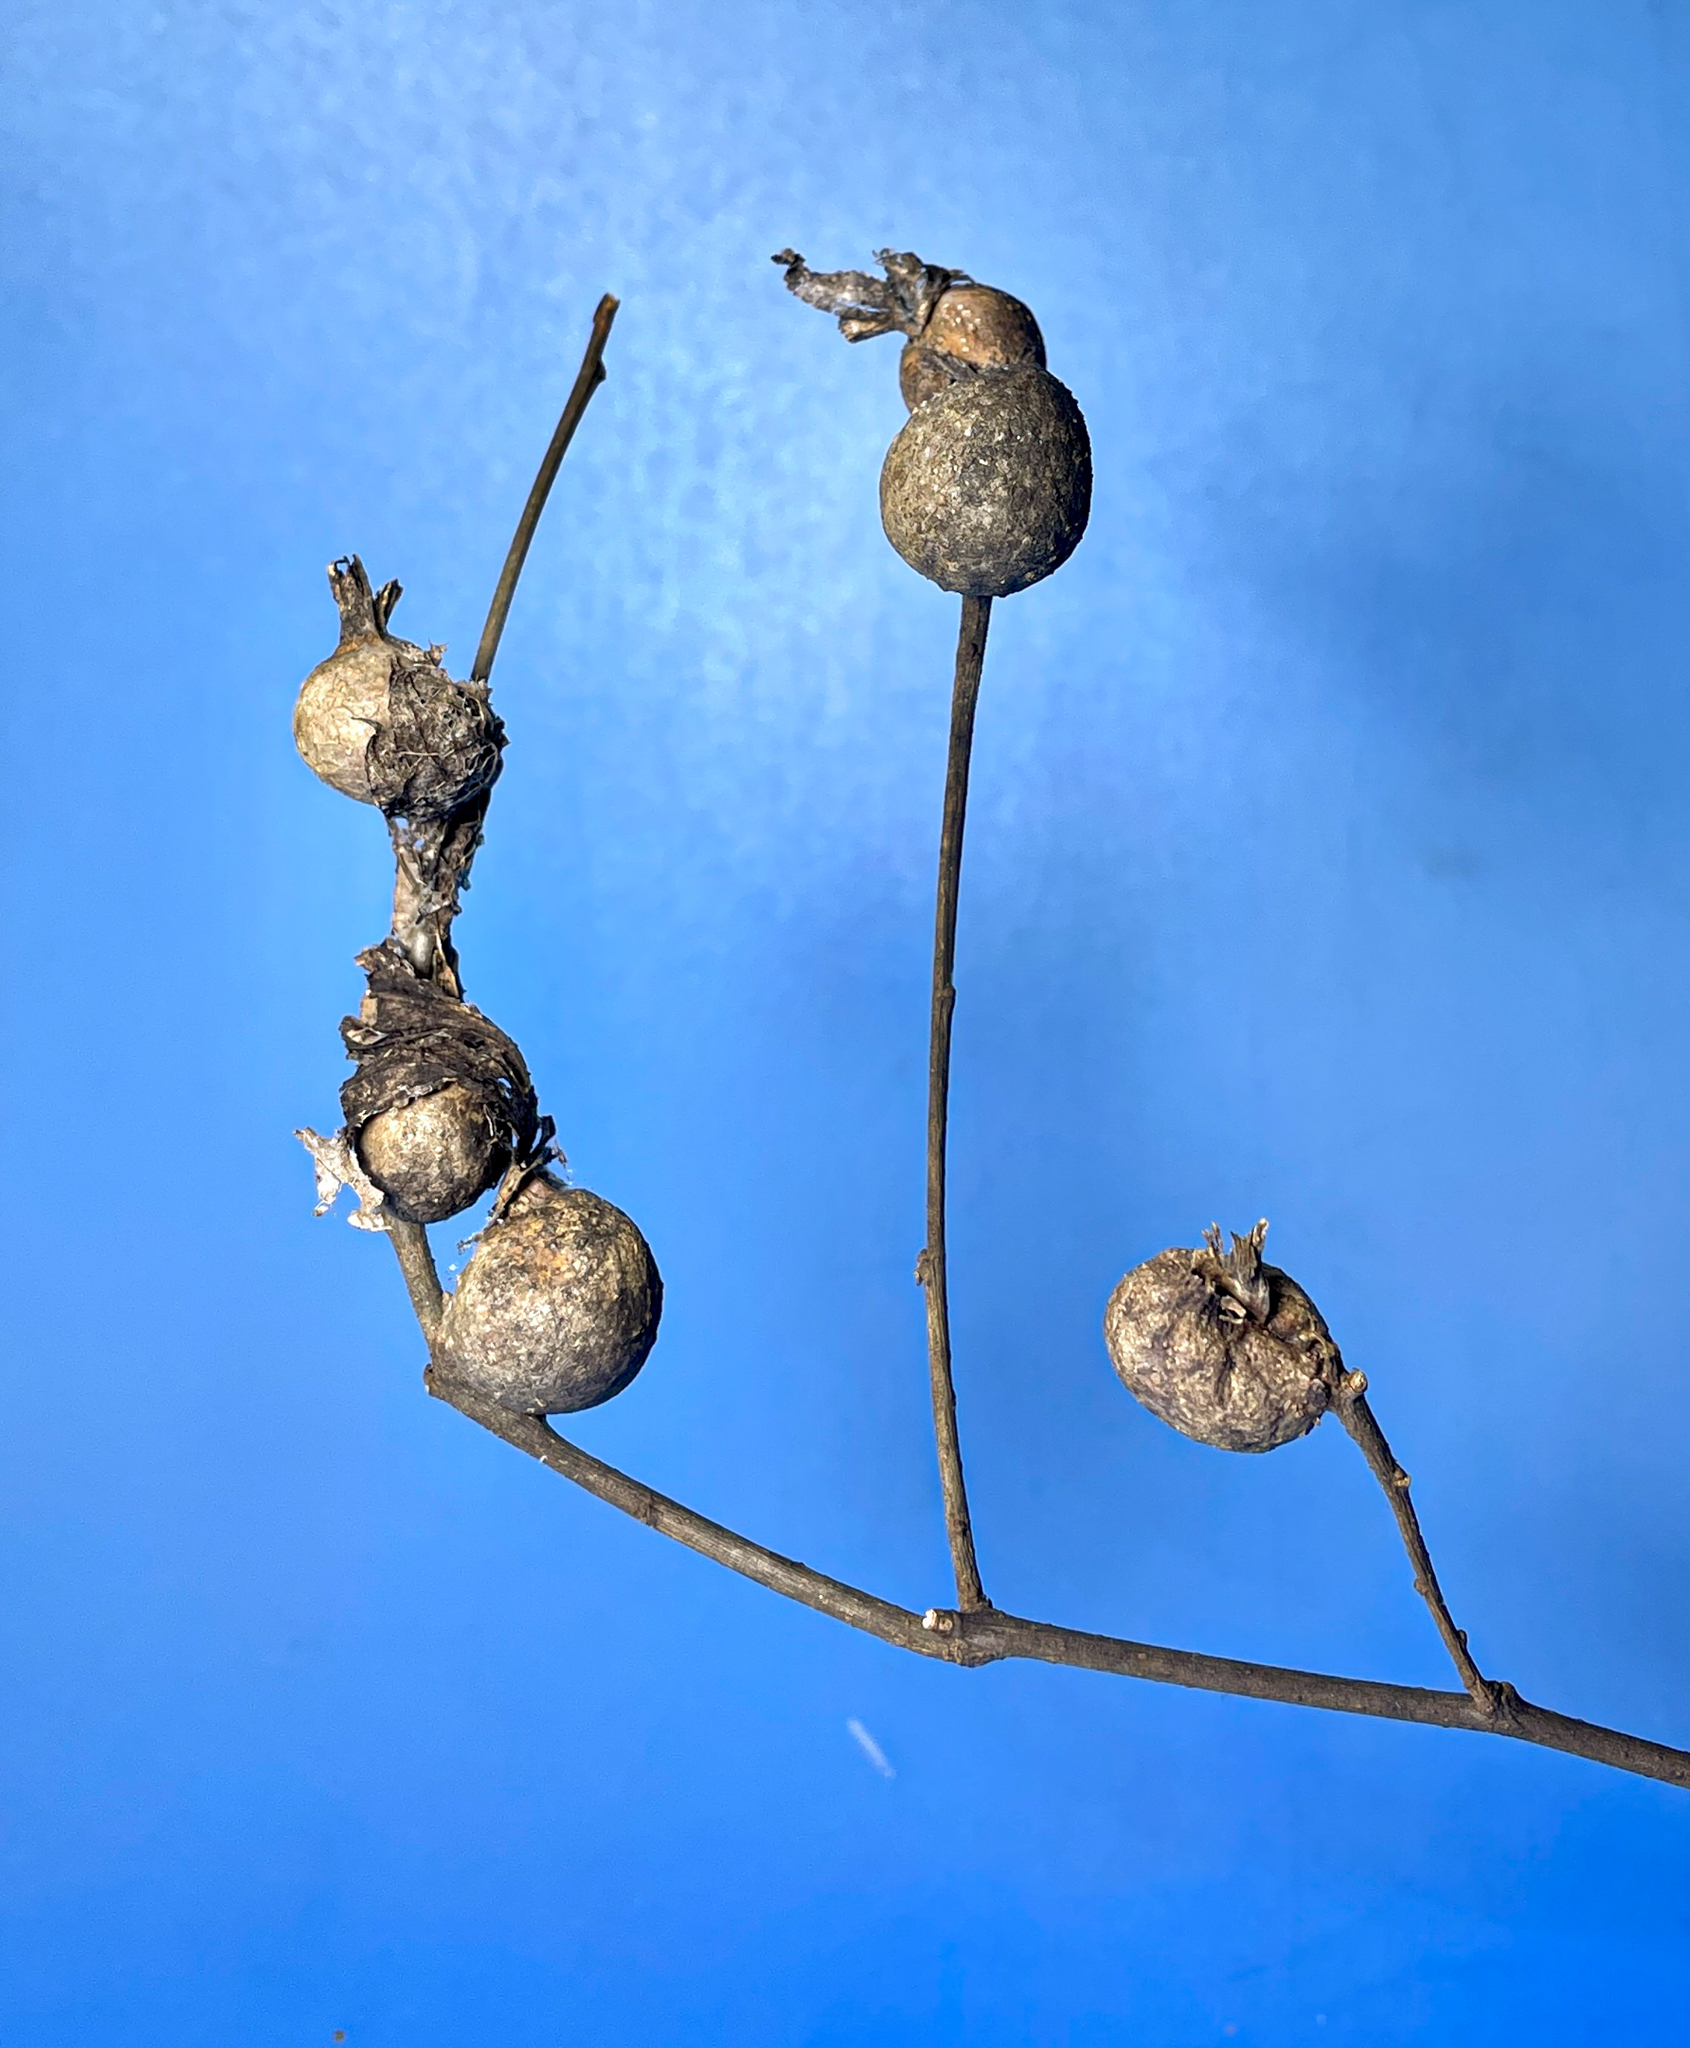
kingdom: Animalia
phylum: Arthropoda
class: Insecta
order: Hemiptera
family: Aphalaridae
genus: Pachypsylla
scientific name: Pachypsylla venusta
